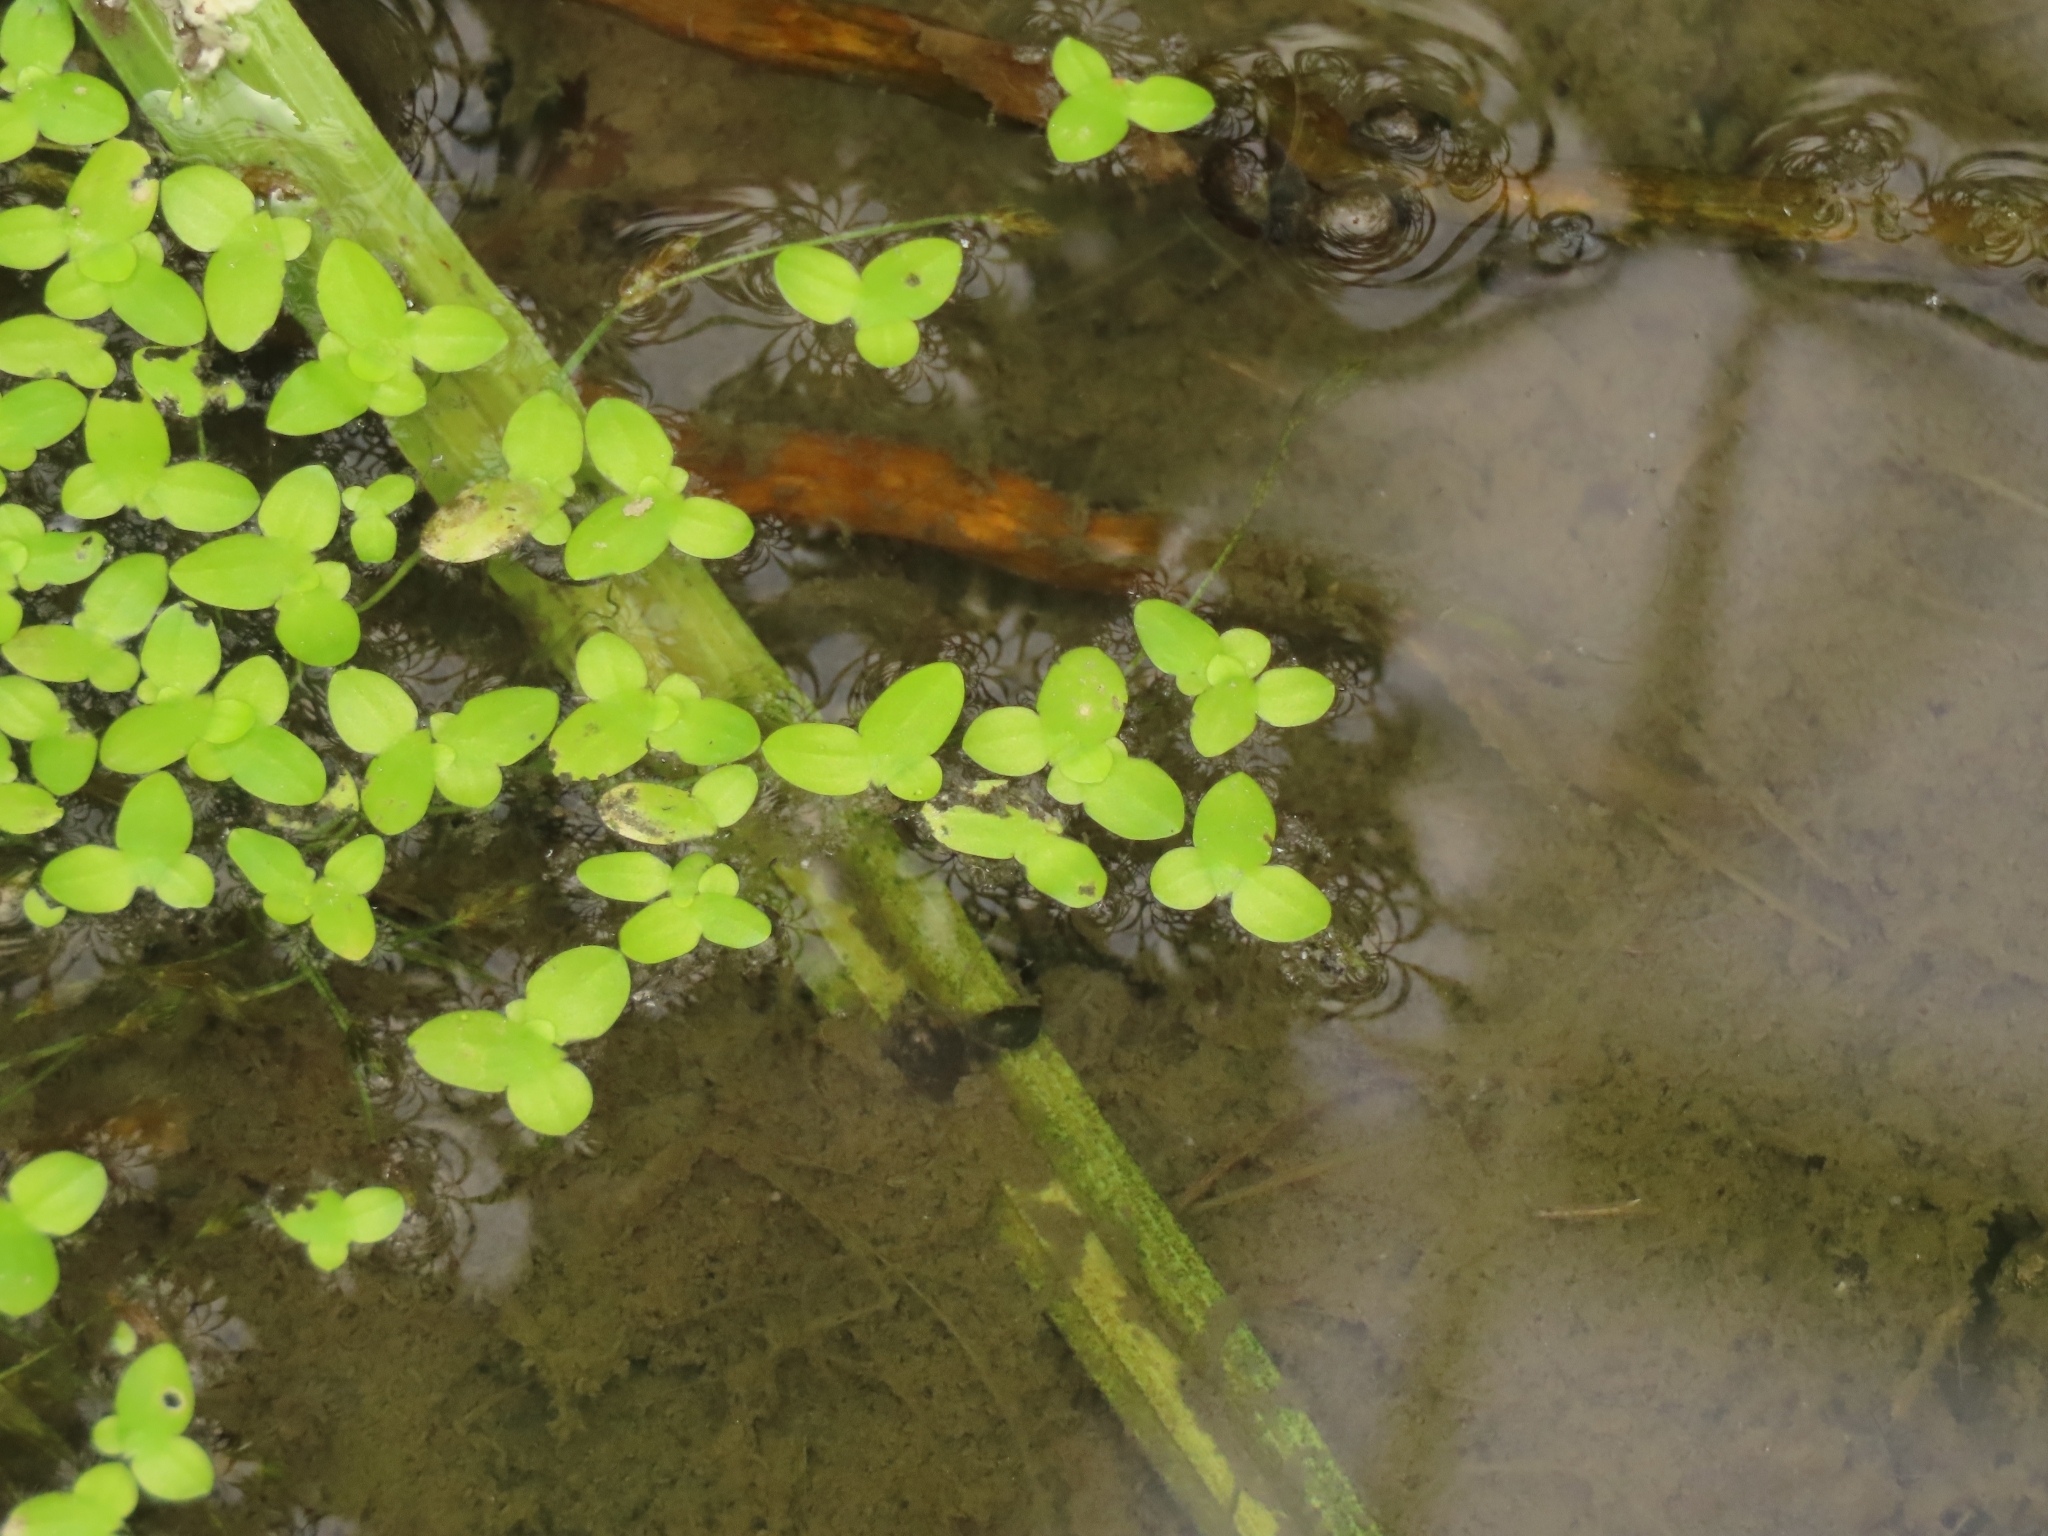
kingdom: Plantae
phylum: Tracheophyta
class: Liliopsida
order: Alismatales
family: Araceae
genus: Lemna
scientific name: Lemna aequinoctialis
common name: Duckweed
